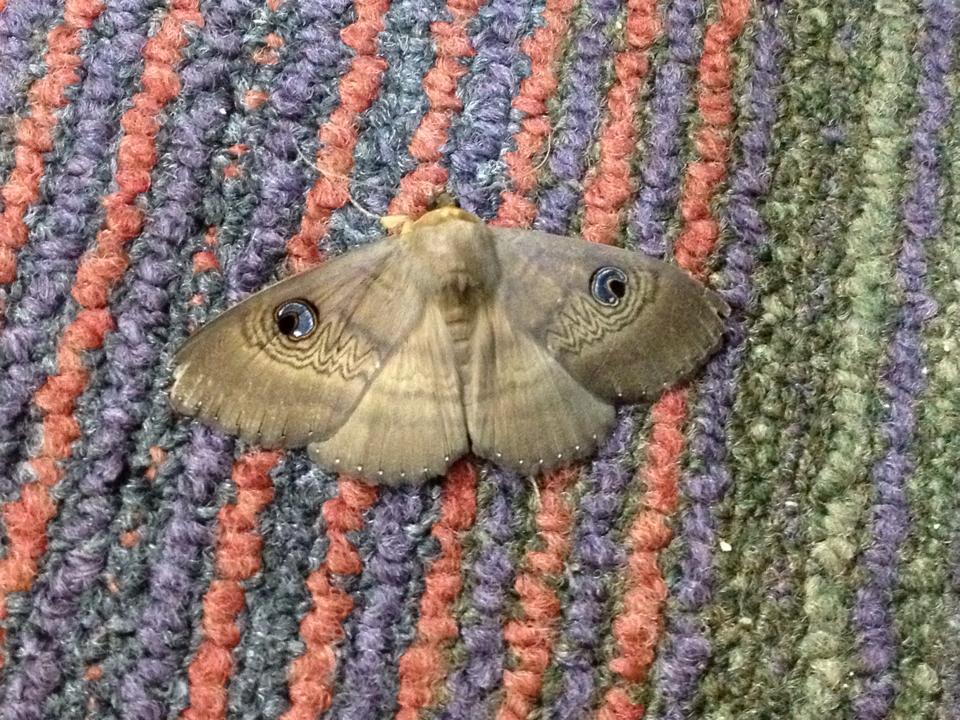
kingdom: Animalia
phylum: Arthropoda
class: Insecta
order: Lepidoptera
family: Erebidae
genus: Dasypodia
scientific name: Dasypodia selenophora
